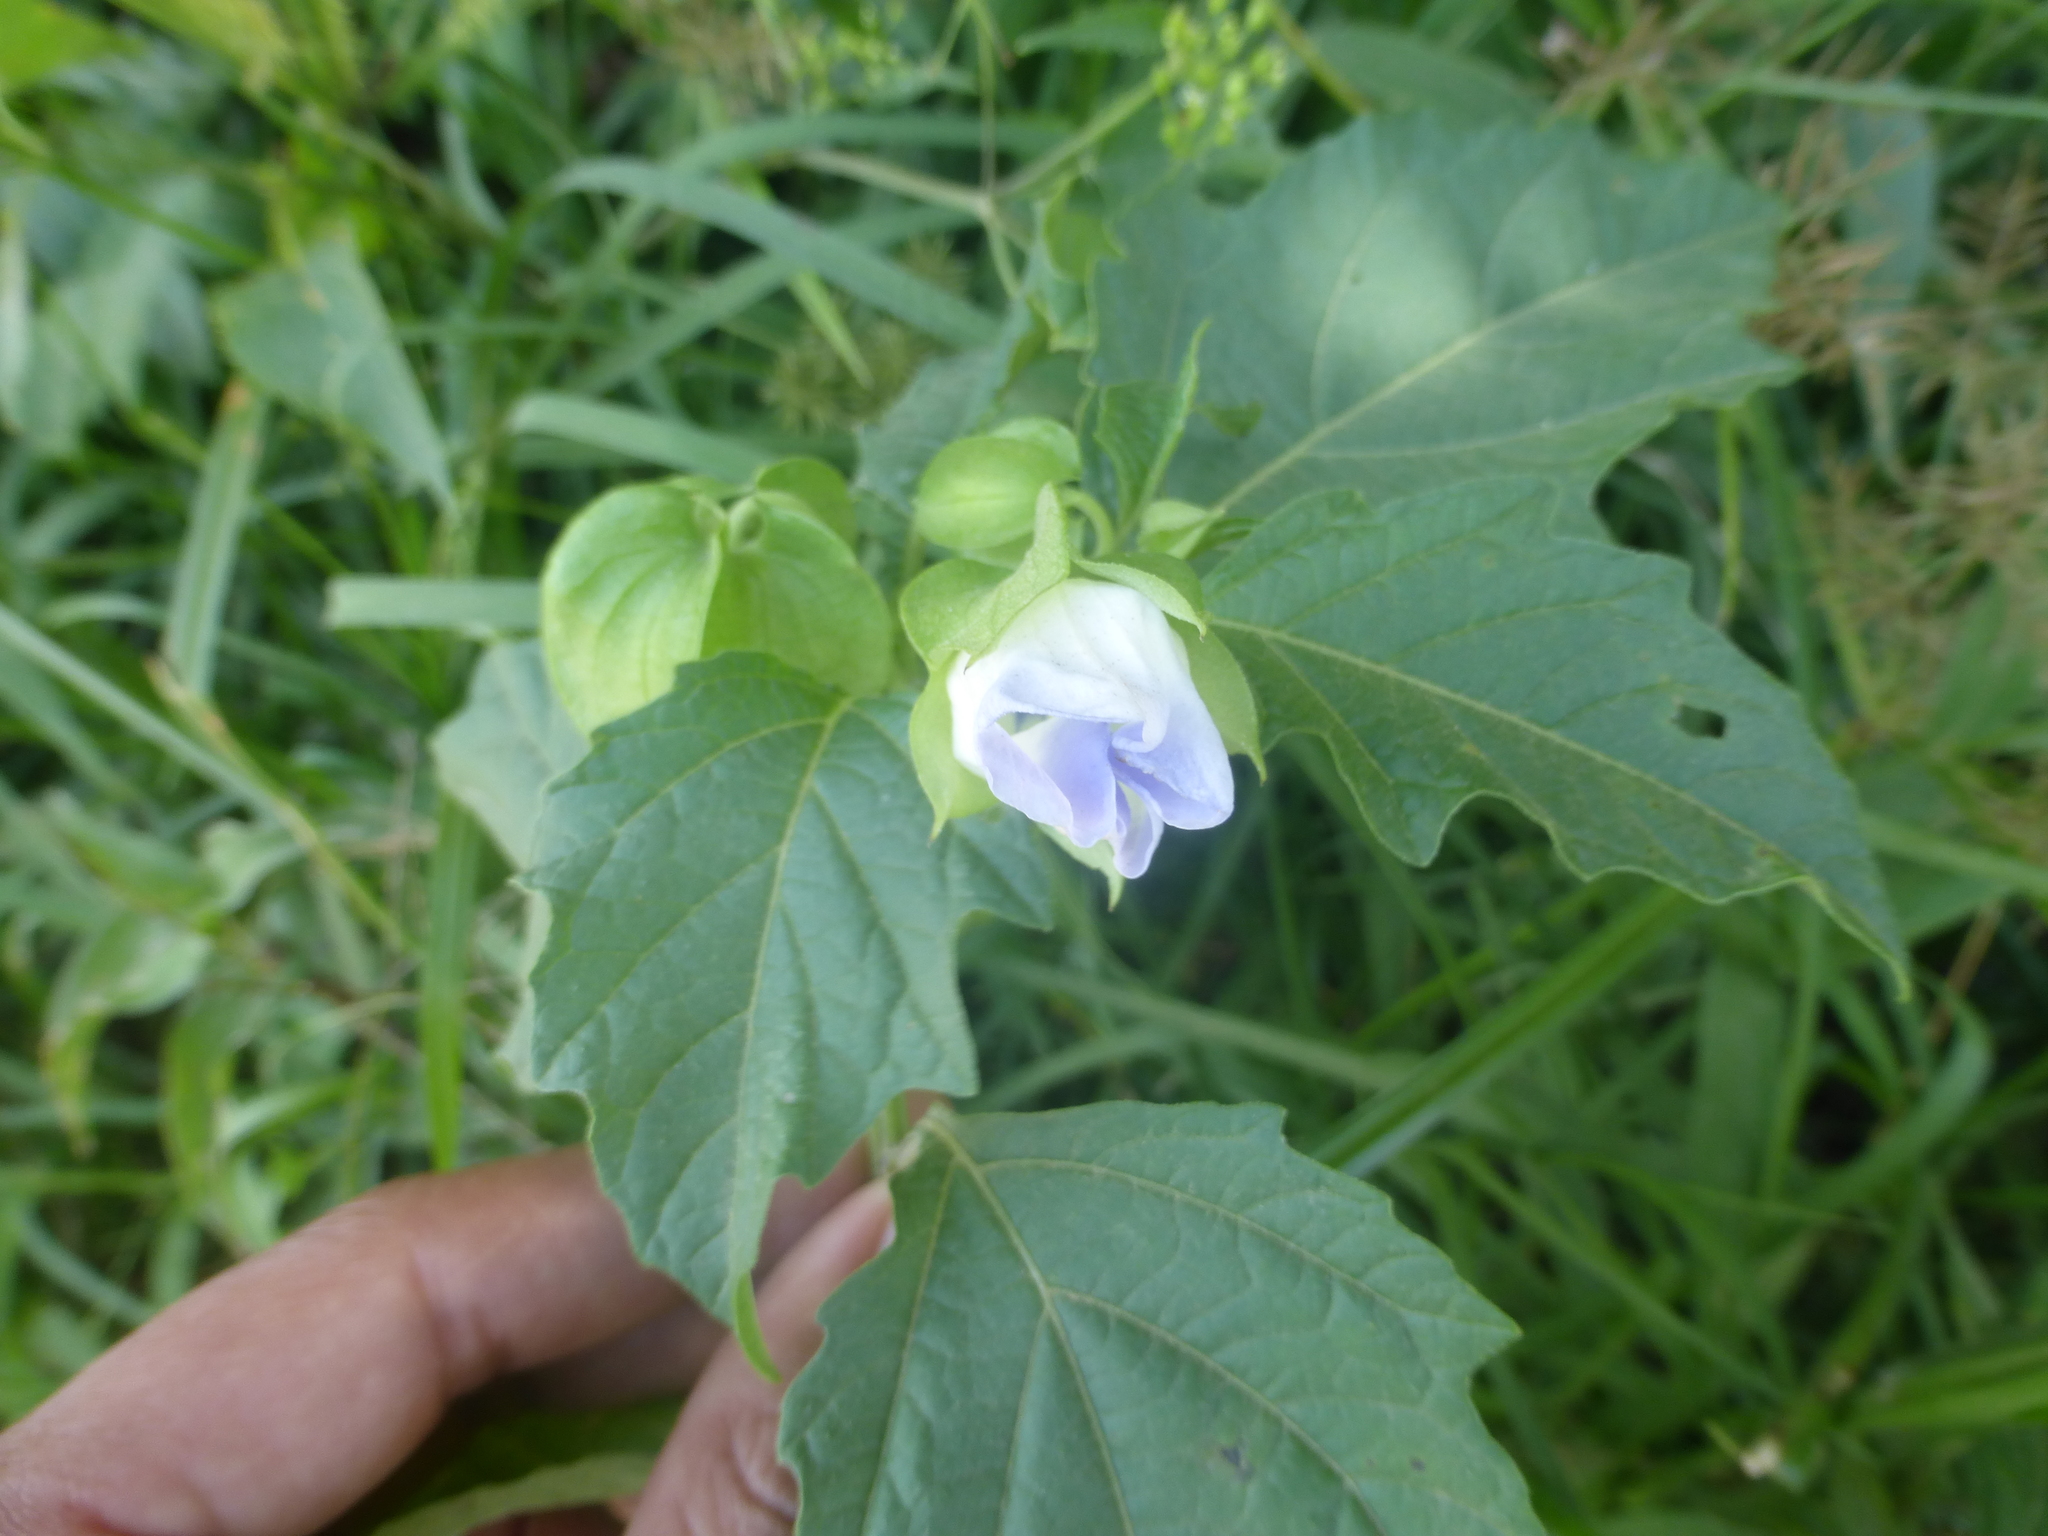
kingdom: Plantae
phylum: Tracheophyta
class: Magnoliopsida
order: Solanales
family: Solanaceae
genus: Nicandra
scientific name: Nicandra physalodes
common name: Apple-of-peru
